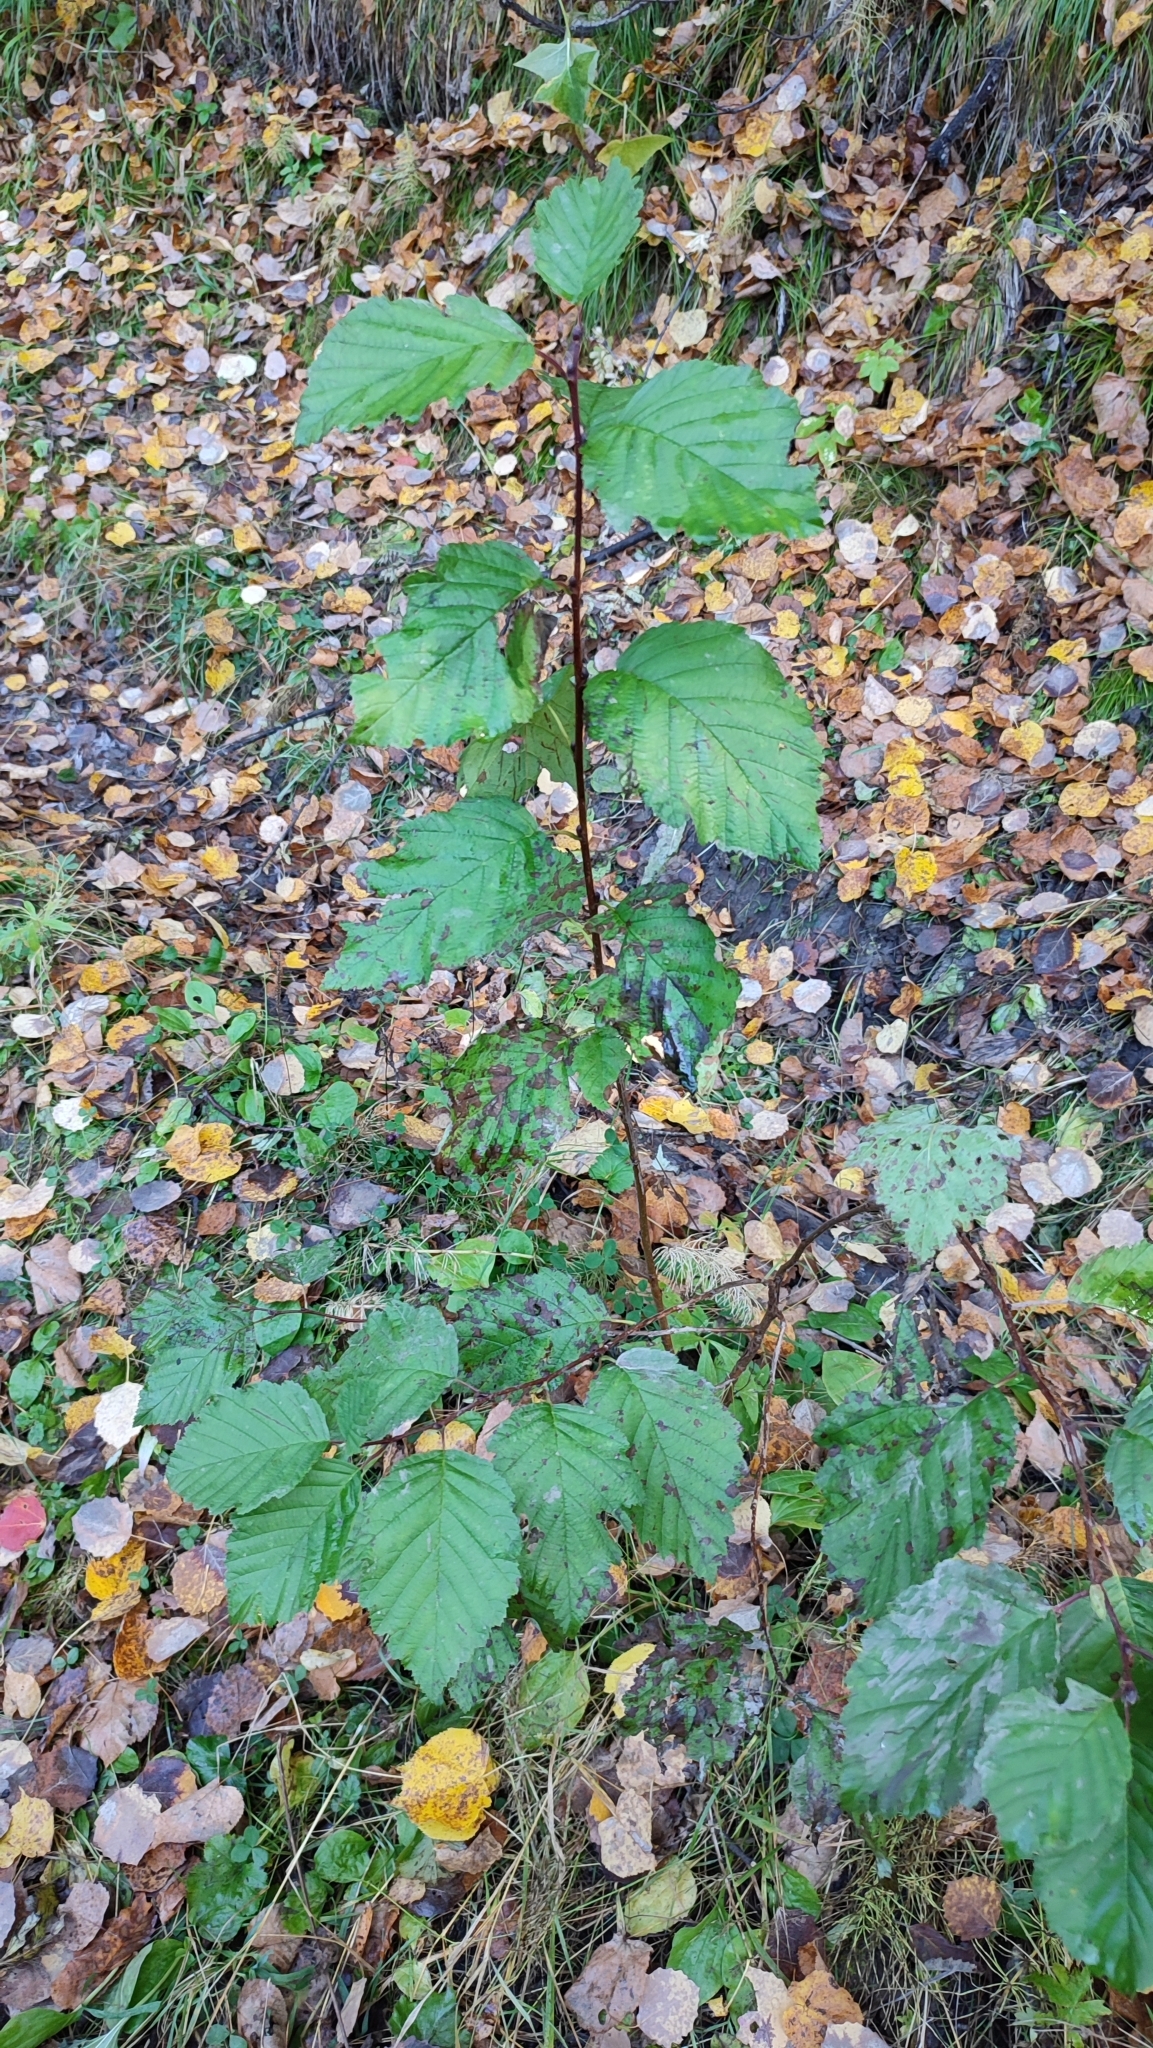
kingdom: Plantae
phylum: Tracheophyta
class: Magnoliopsida
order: Fagales
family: Betulaceae
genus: Alnus
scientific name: Alnus incana
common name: Grey alder
